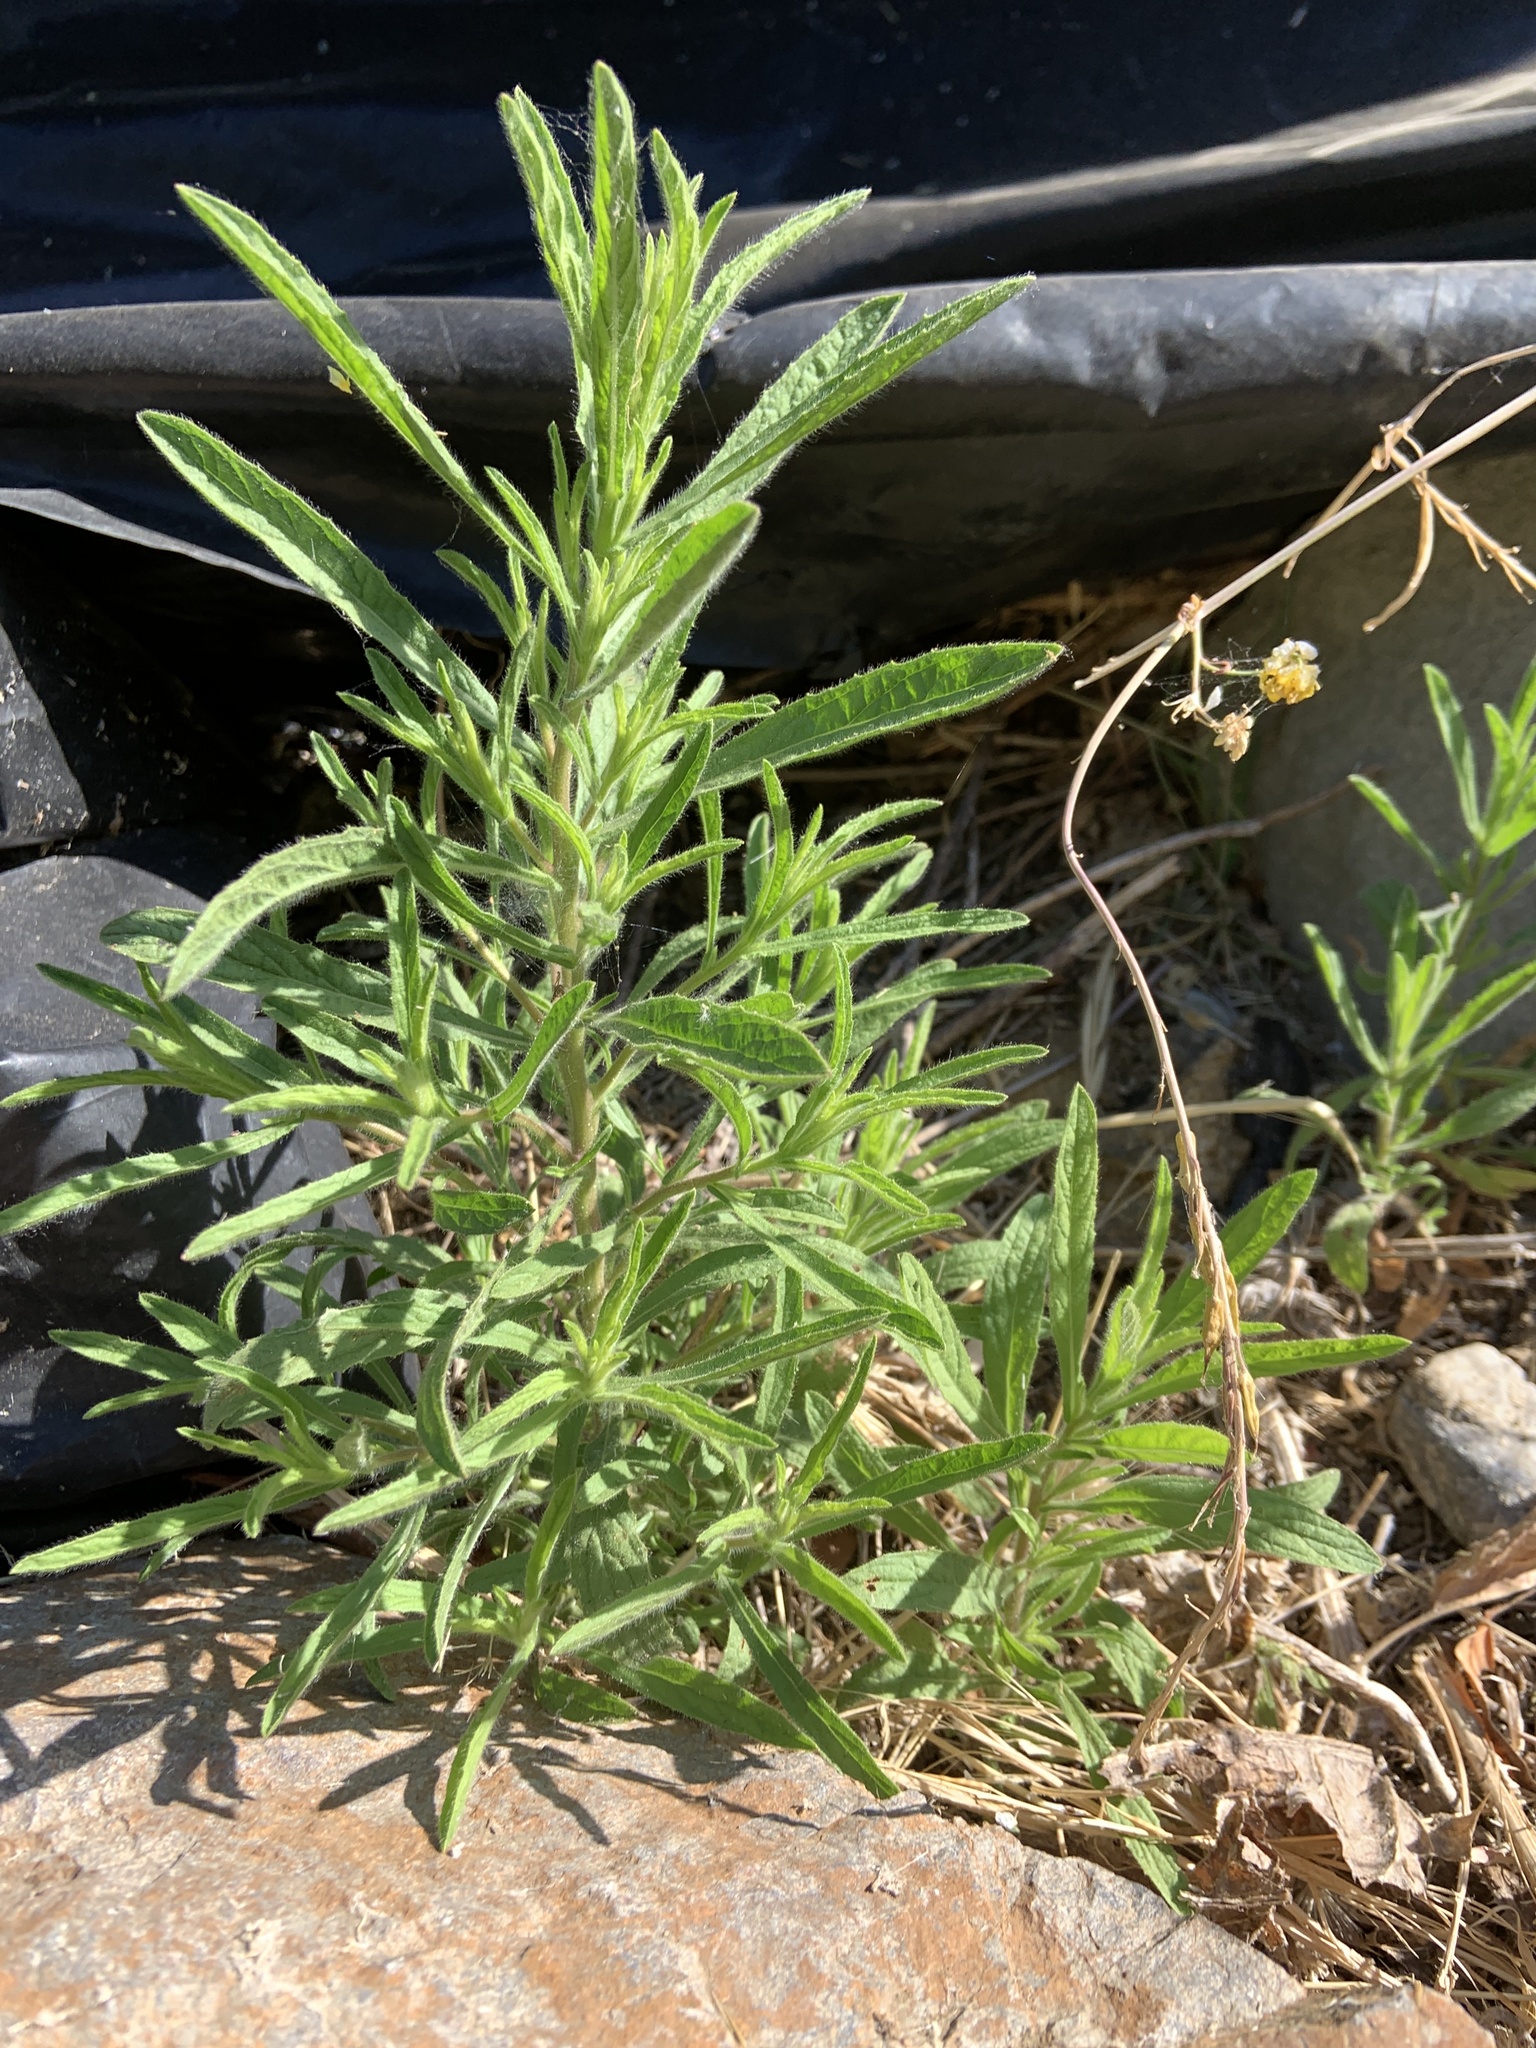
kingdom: Plantae
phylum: Tracheophyta
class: Magnoliopsida
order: Asterales
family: Asteraceae
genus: Dittrichia
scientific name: Dittrichia graveolens
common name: Stinking fleabane
